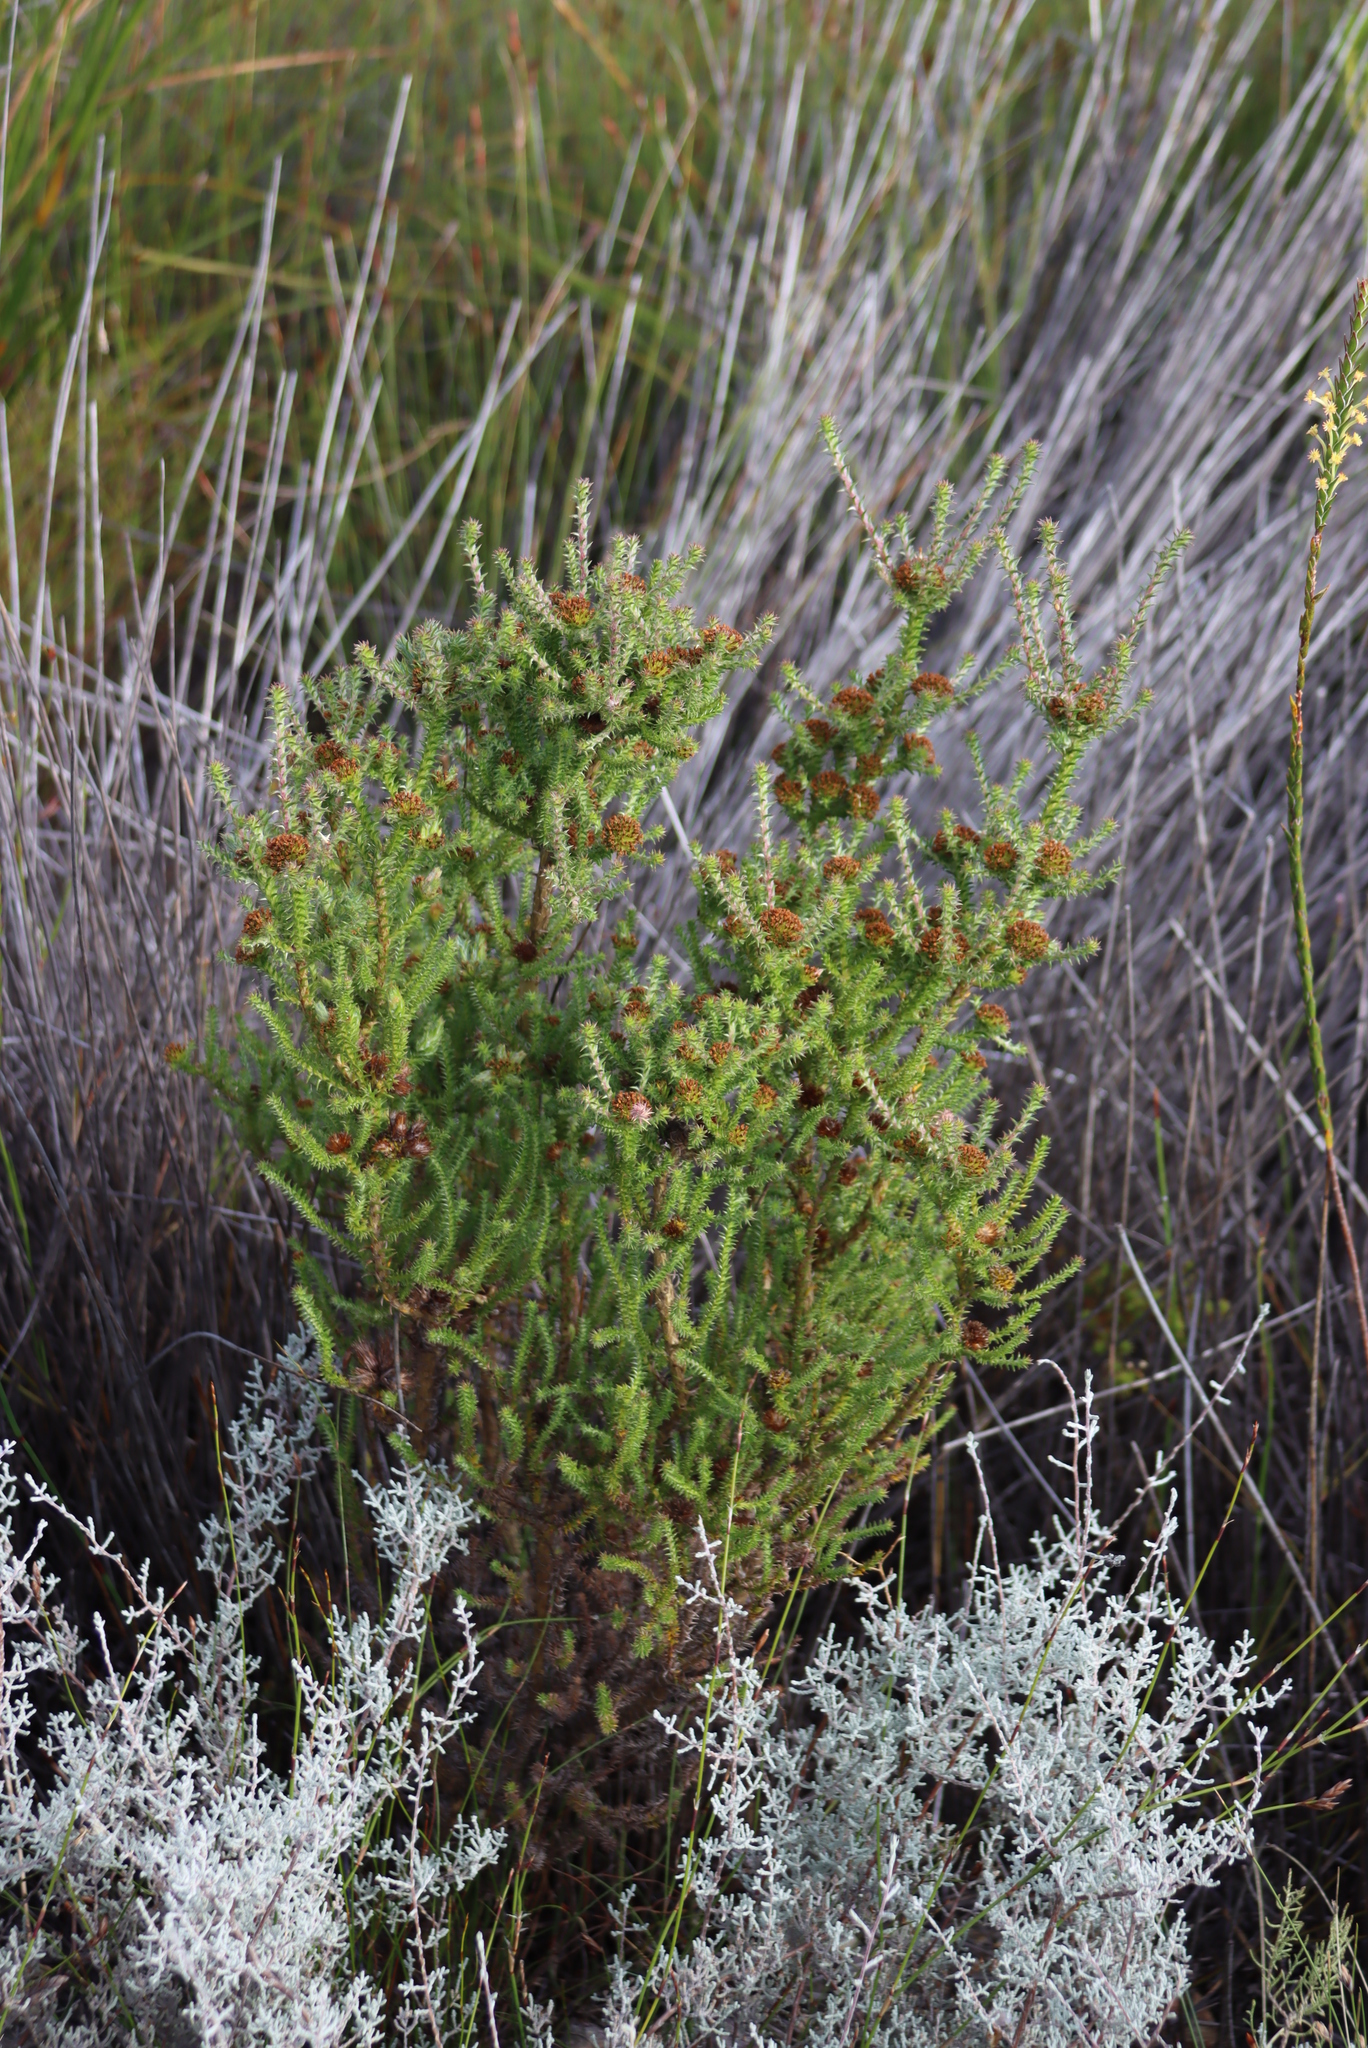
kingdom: Plantae
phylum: Tracheophyta
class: Magnoliopsida
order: Asterales
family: Asteraceae
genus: Stoebe
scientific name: Stoebe aethiopica
